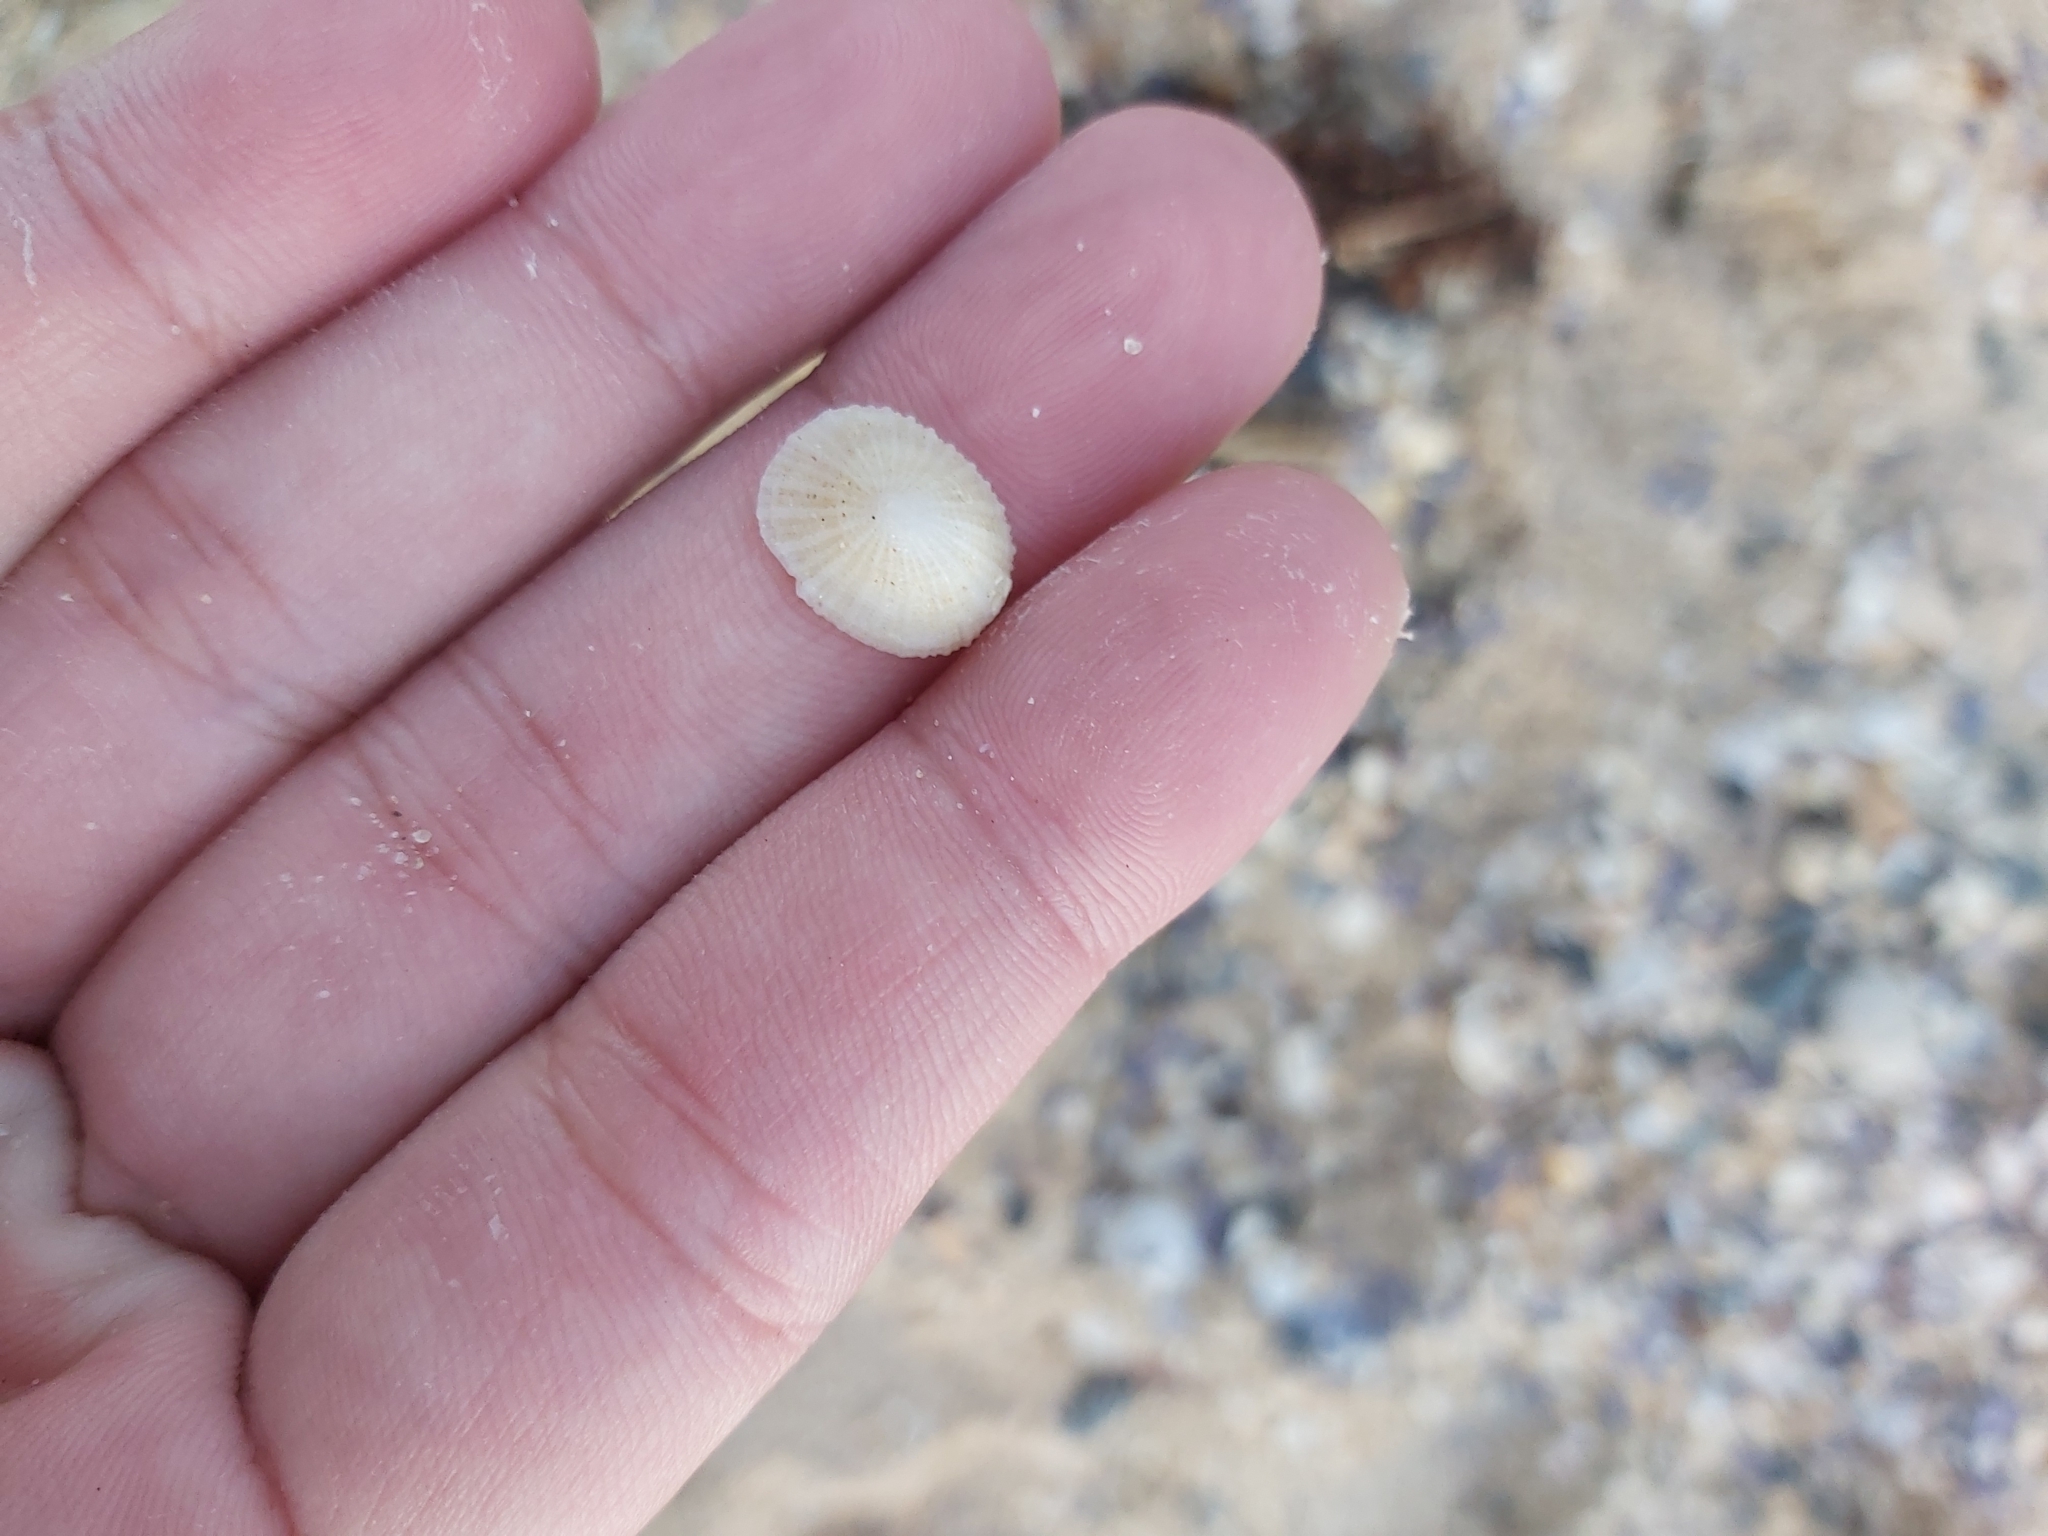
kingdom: Animalia
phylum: Mollusca
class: Gastropoda
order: Lepetellida
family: Fissurellidae
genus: Montfortula
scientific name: Montfortula rugosa
